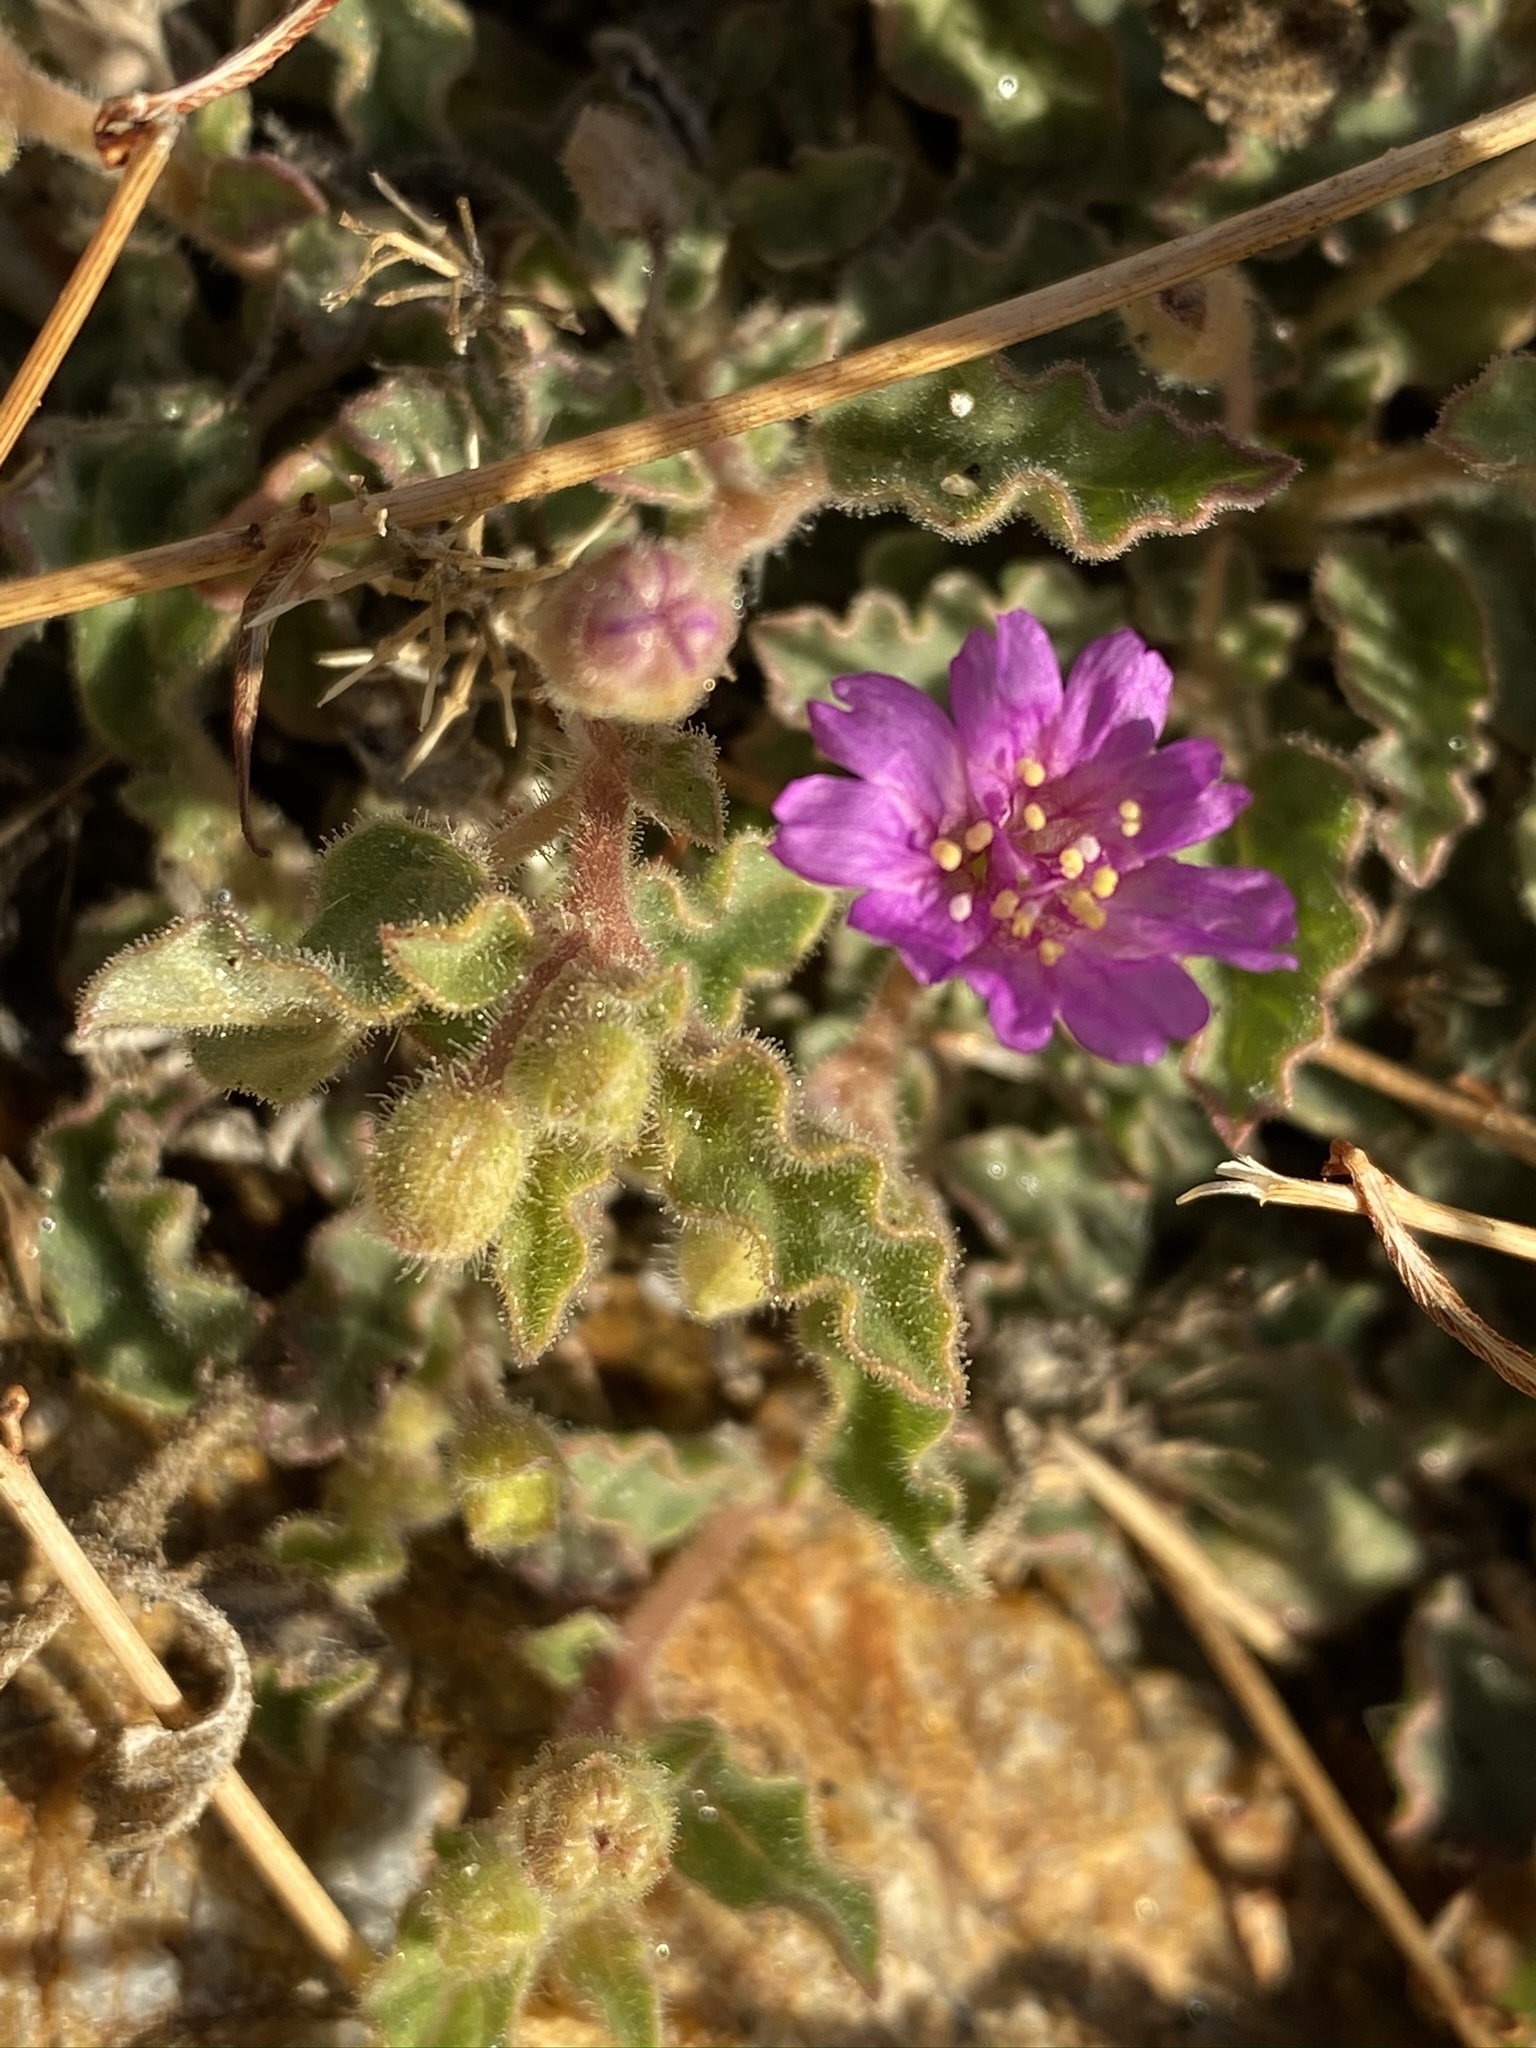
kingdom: Plantae
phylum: Tracheophyta
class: Magnoliopsida
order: Caryophyllales
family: Nyctaginaceae
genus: Allionia
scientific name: Allionia incarnata
